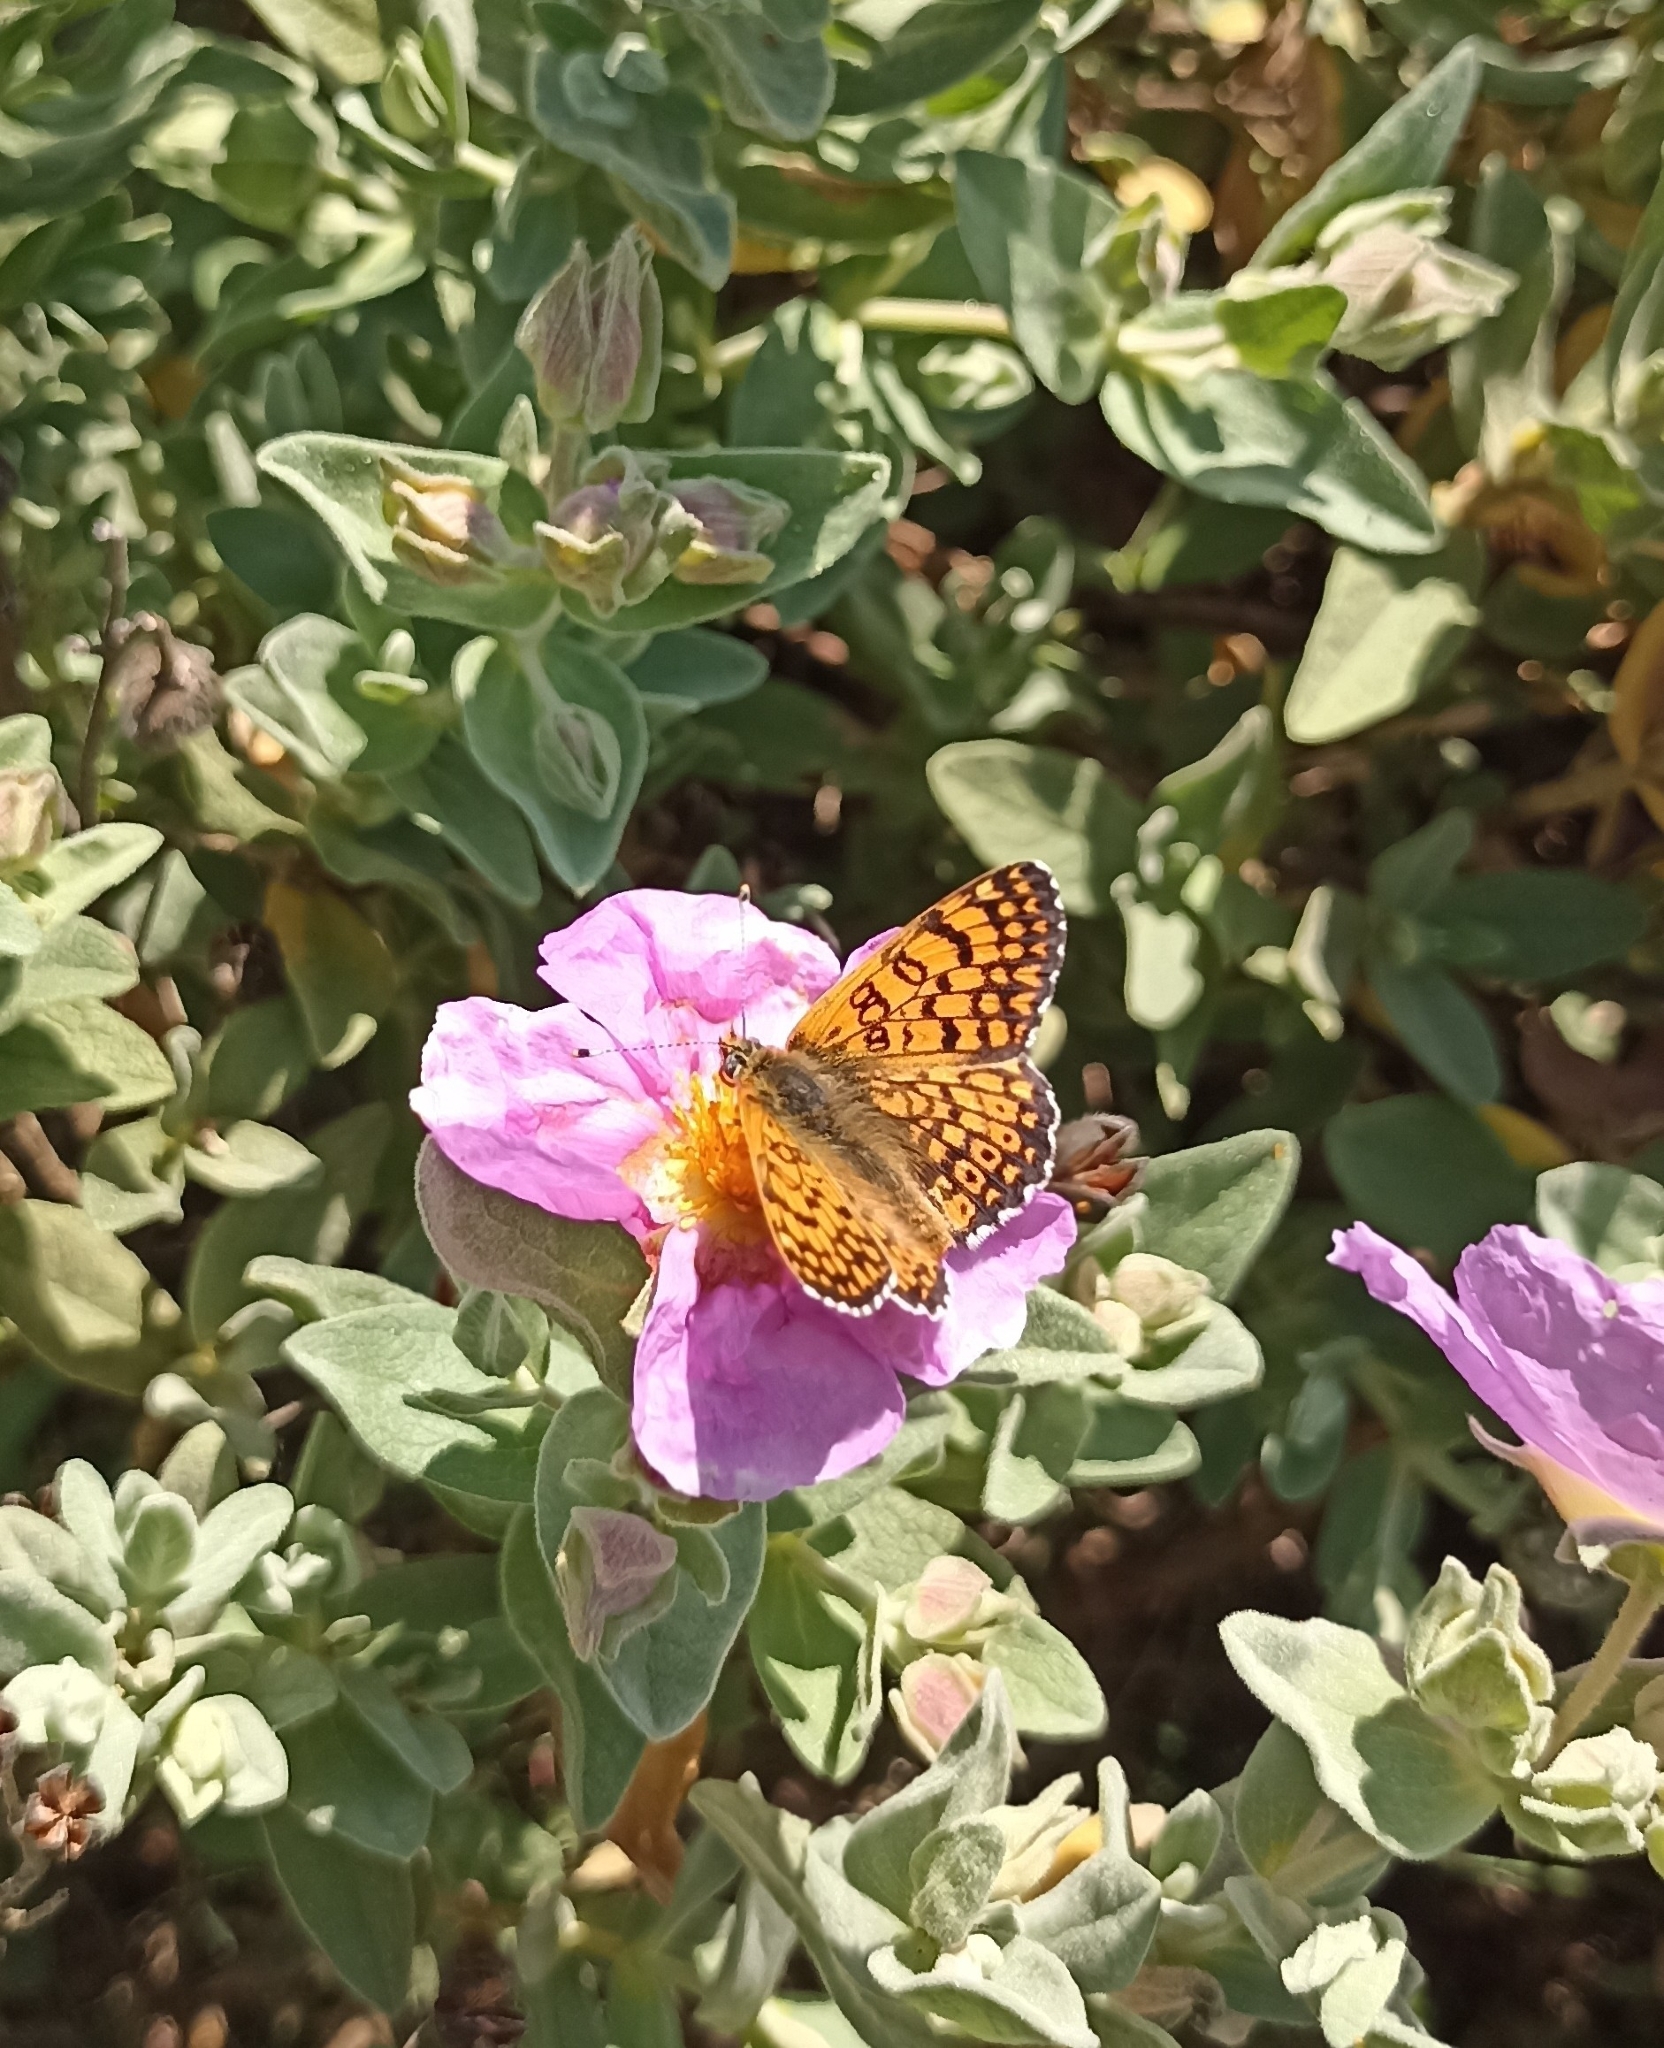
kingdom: Animalia
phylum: Arthropoda
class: Insecta
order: Lepidoptera
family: Nymphalidae
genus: Melitaea
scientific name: Melitaea cinxia
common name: Glanville fritillary
